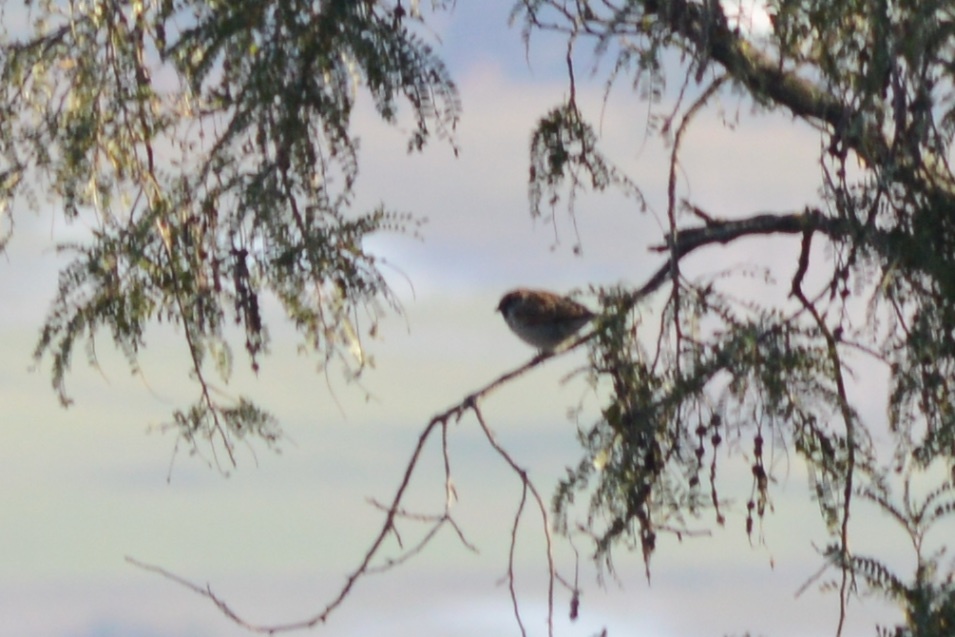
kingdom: Animalia
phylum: Chordata
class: Aves
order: Passeriformes
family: Passeridae
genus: Passer
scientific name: Passer domesticus
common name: House sparrow
